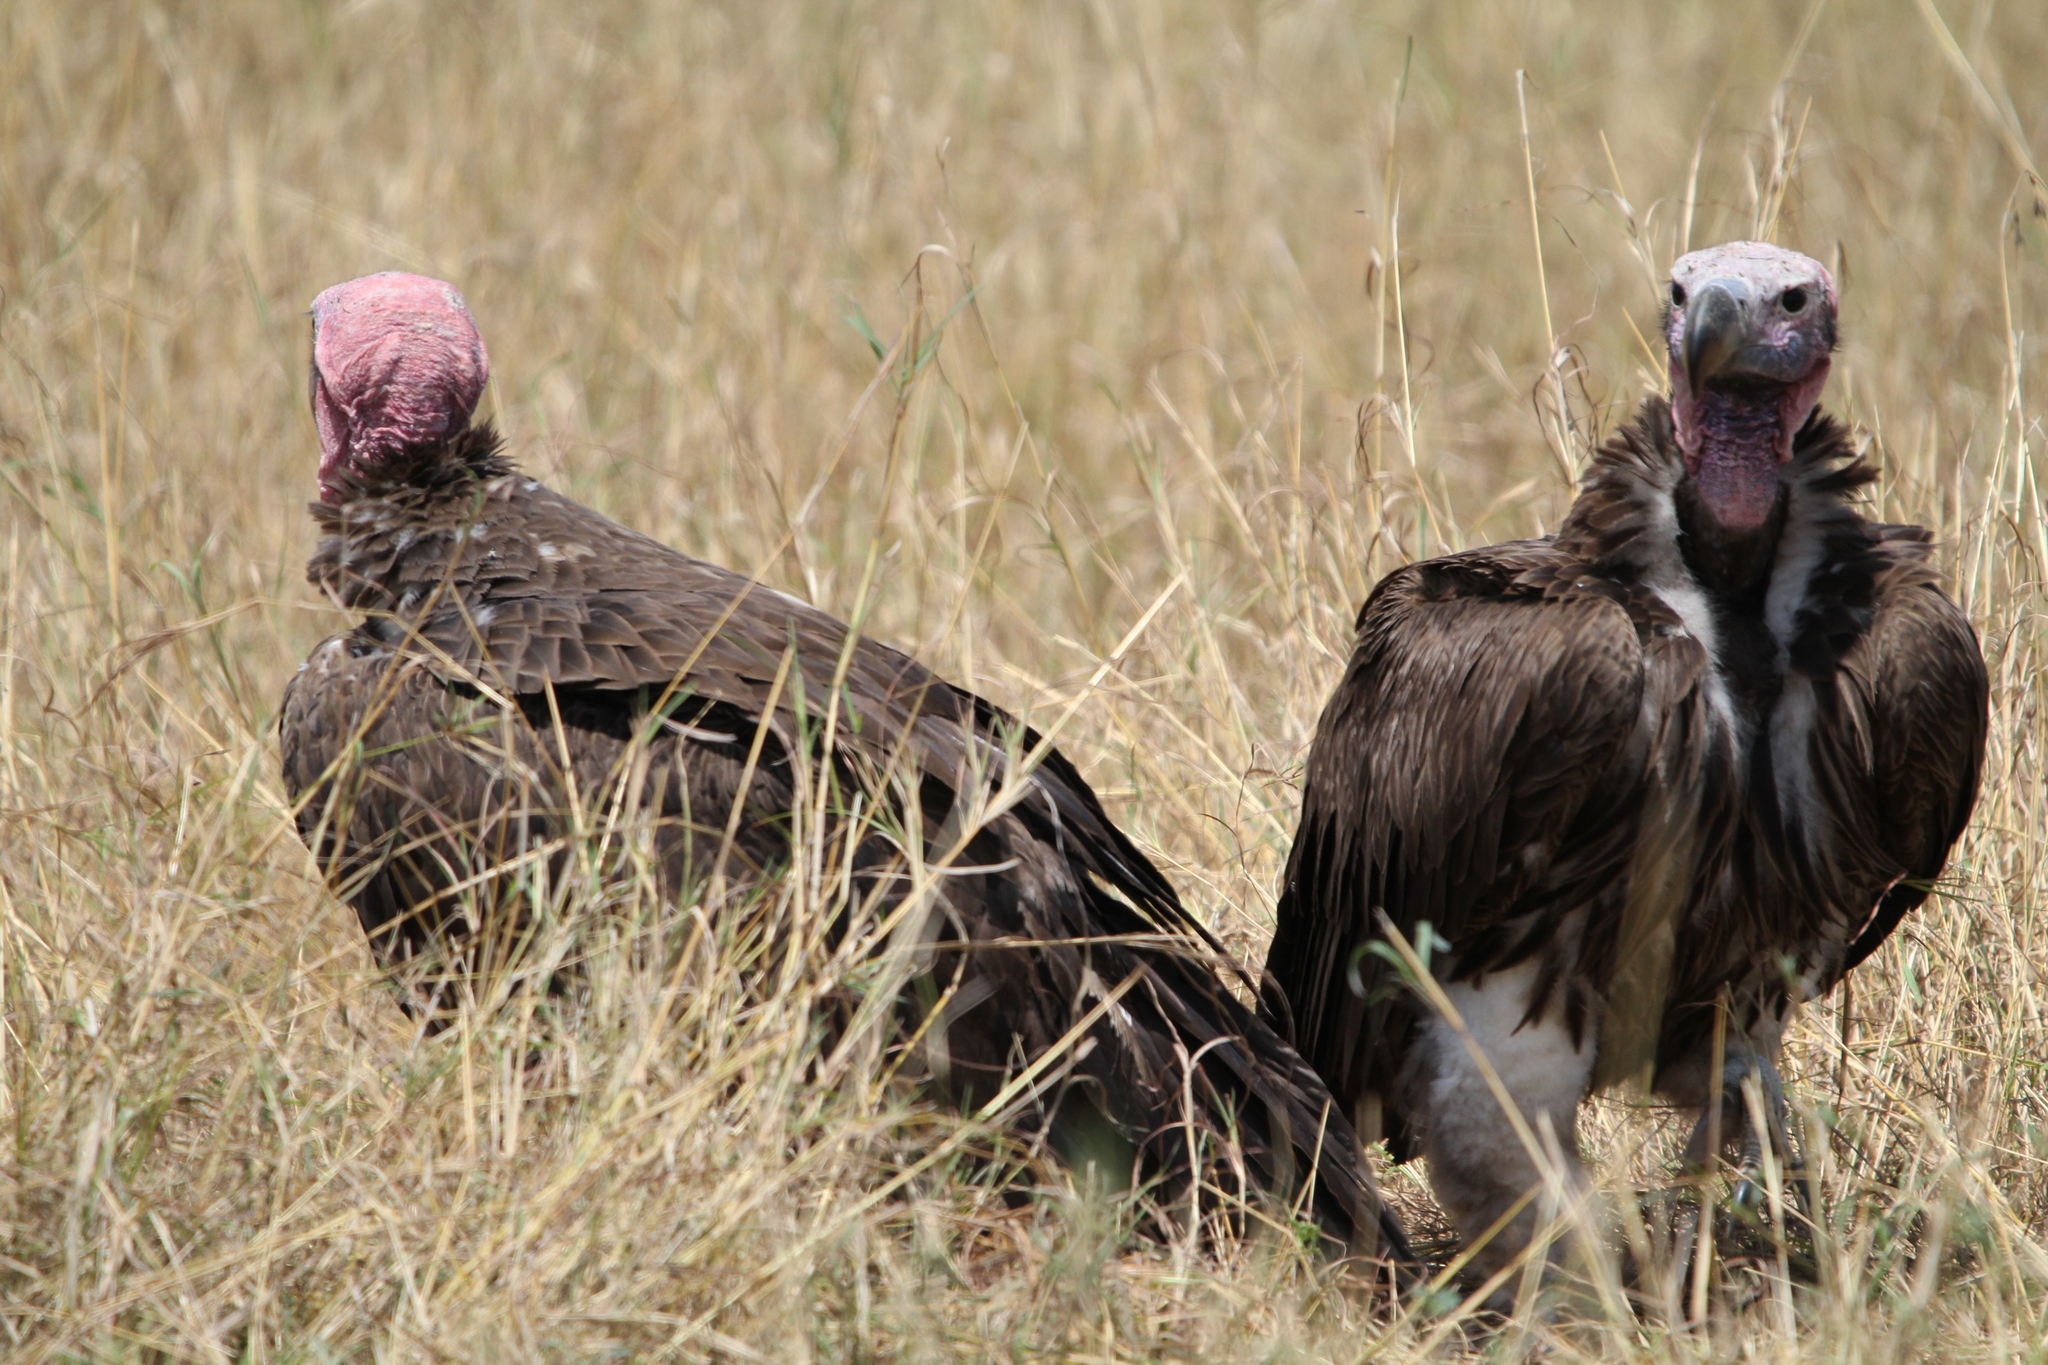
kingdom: Animalia
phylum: Chordata
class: Aves
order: Accipitriformes
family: Accipitridae
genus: Torgos
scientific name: Torgos tracheliotos
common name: Lappet-faced vulture
